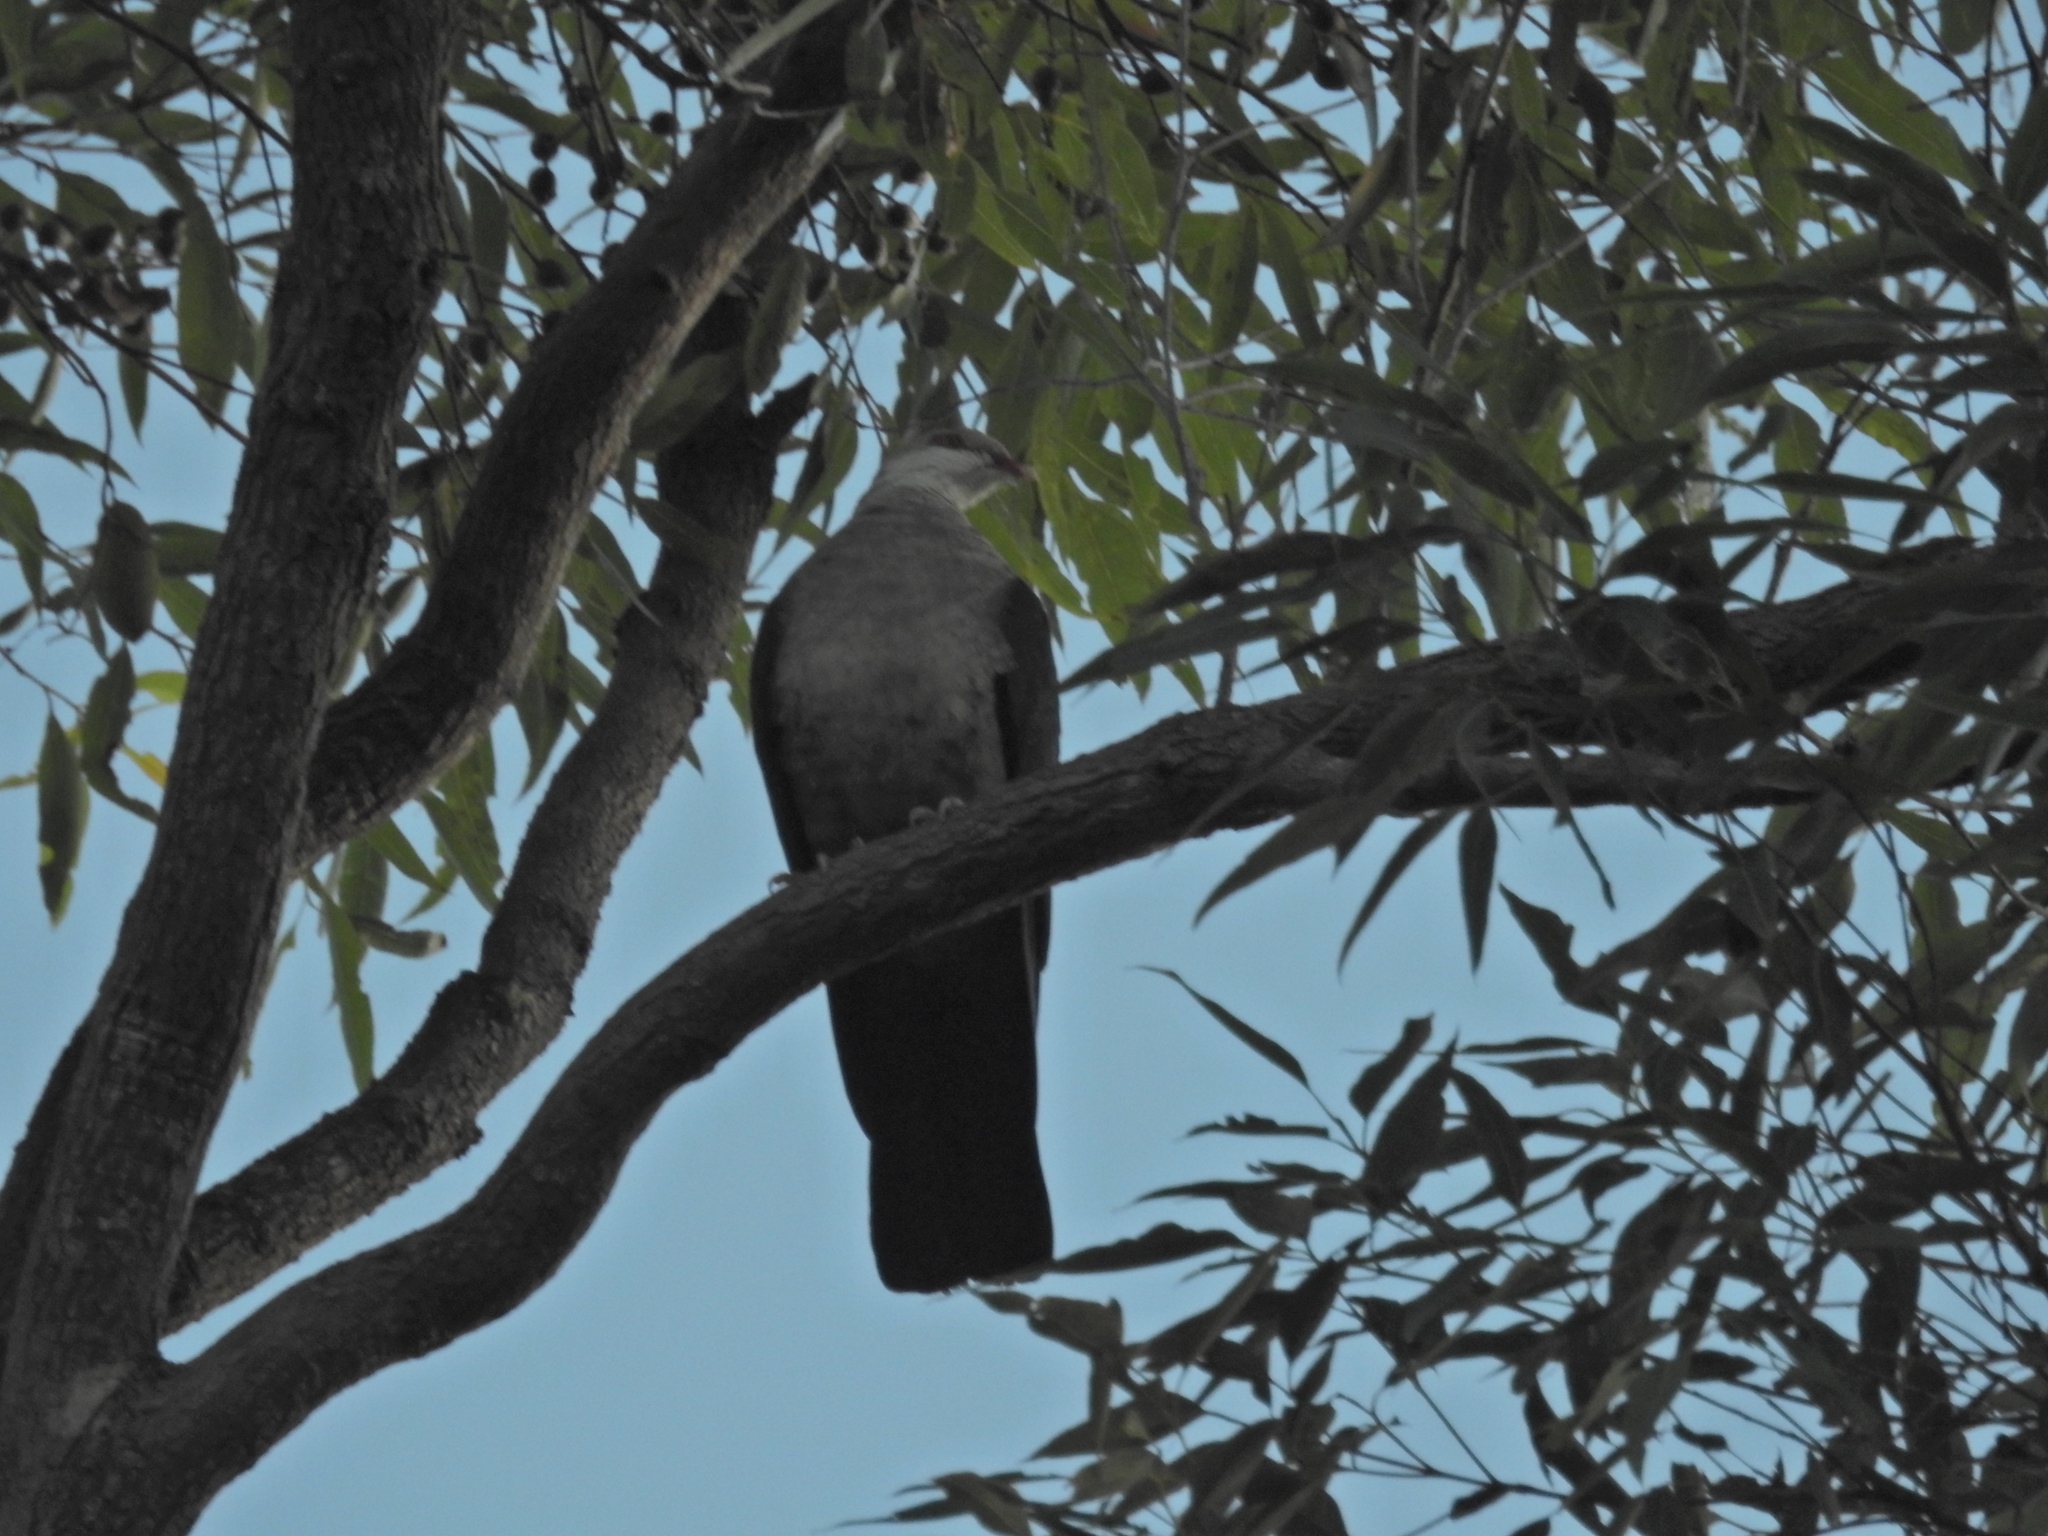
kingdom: Animalia
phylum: Chordata
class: Aves
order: Columbiformes
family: Columbidae
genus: Columba
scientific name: Columba leucomela
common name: White-headed pigeon
